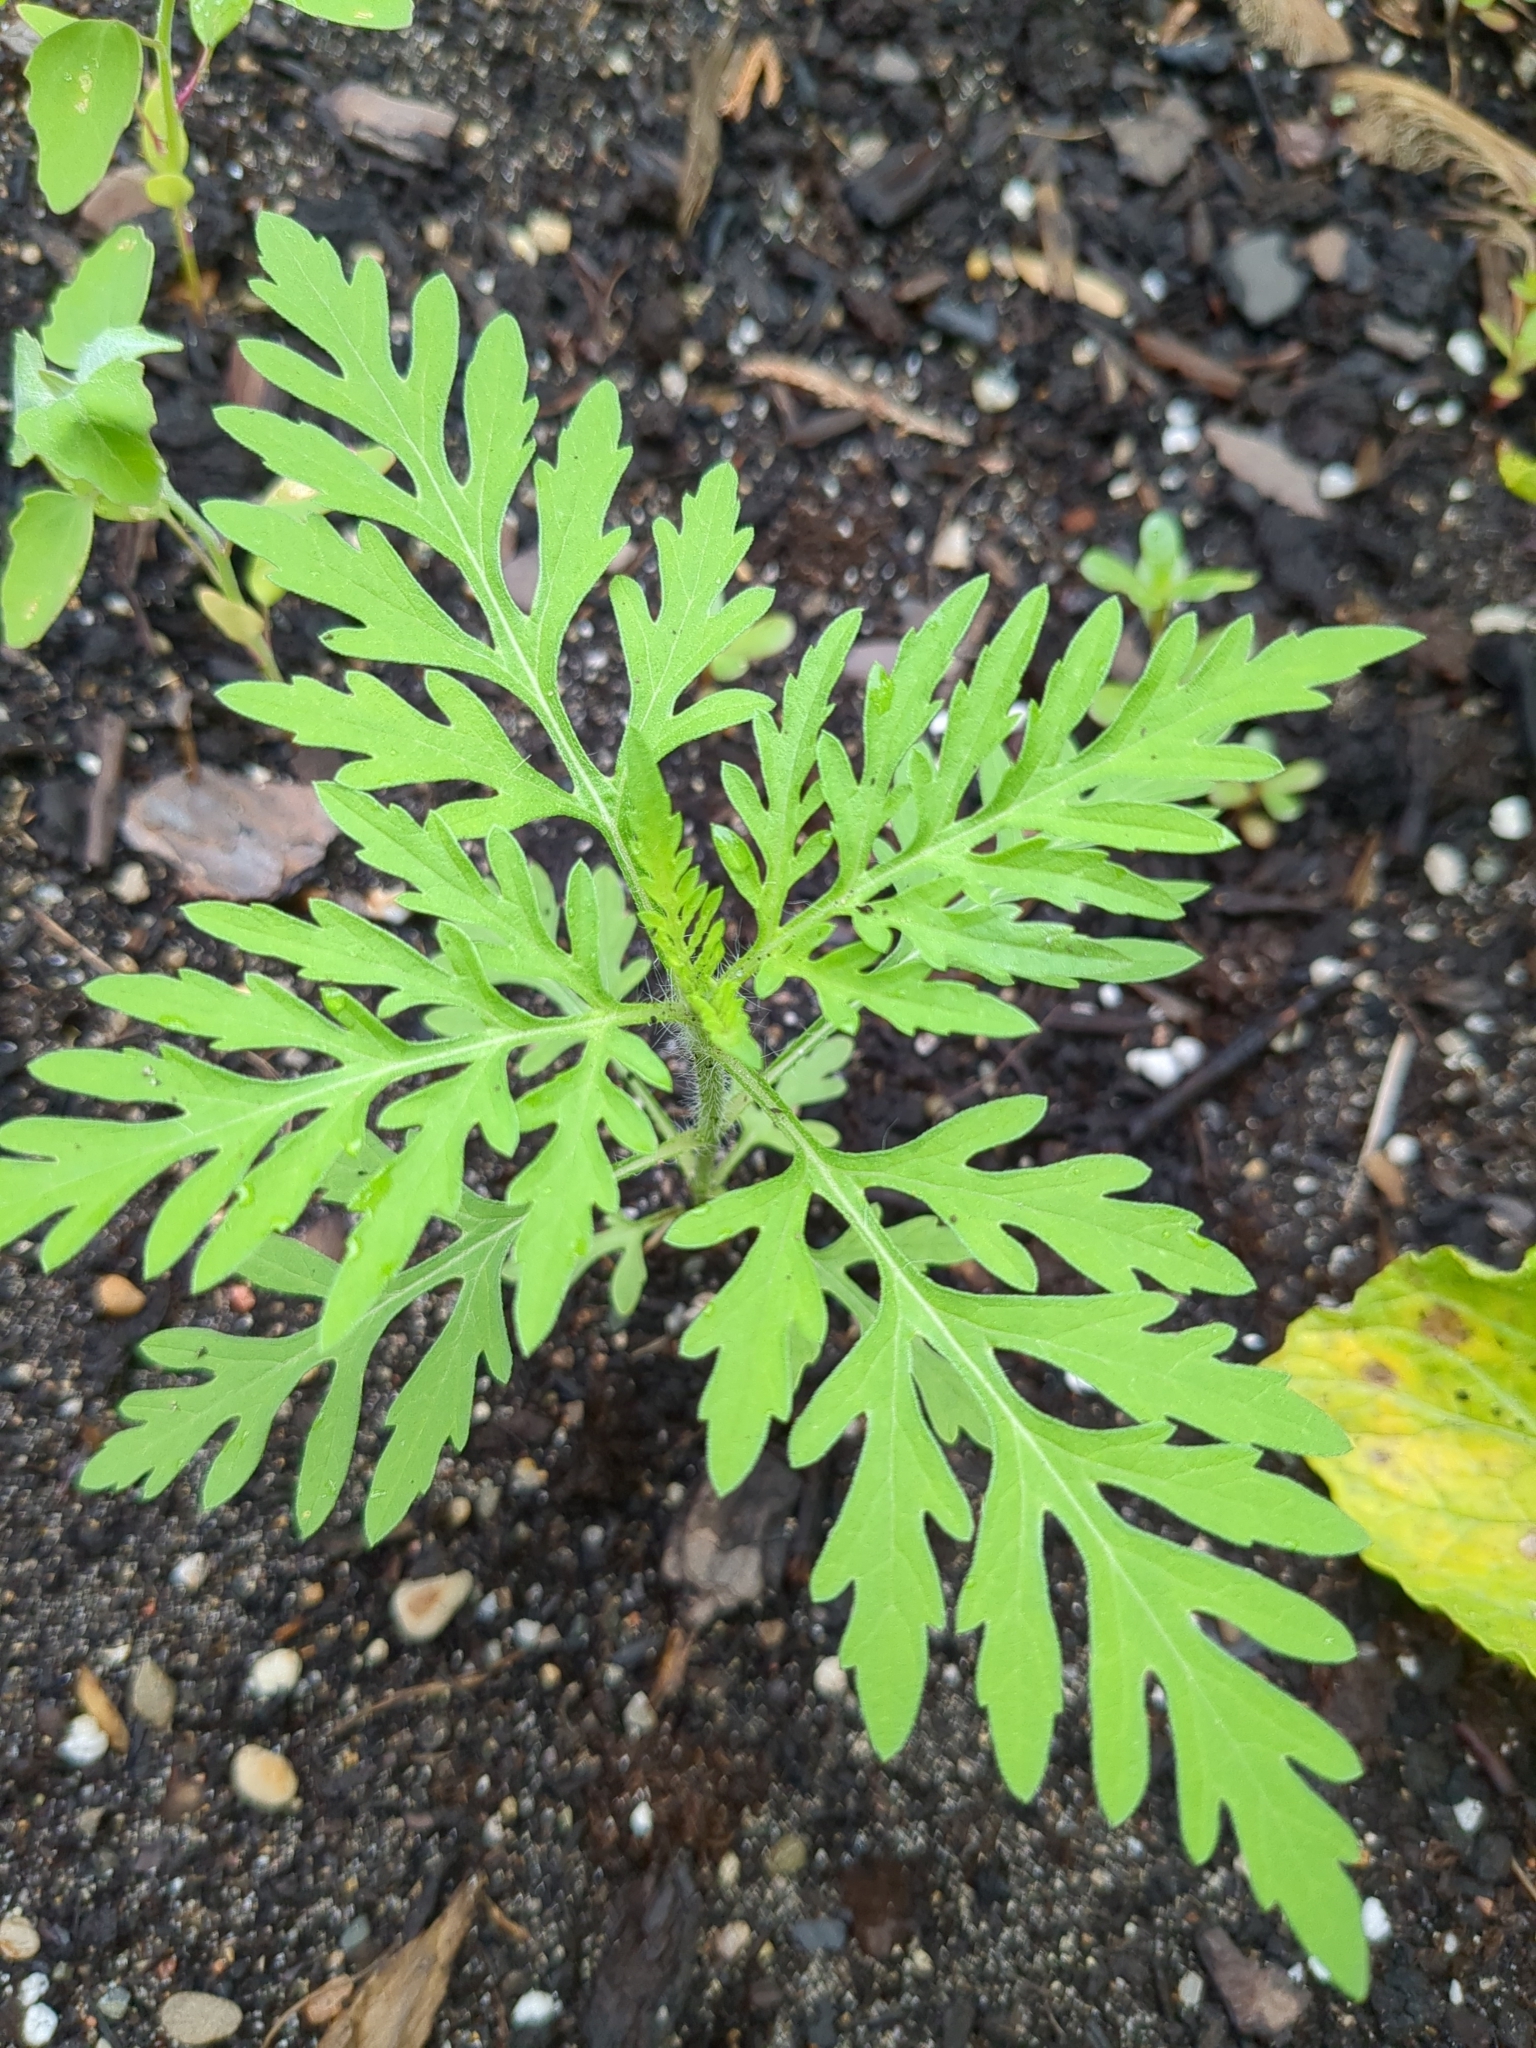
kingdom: Plantae
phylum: Tracheophyta
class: Magnoliopsida
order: Asterales
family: Asteraceae
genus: Ambrosia
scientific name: Ambrosia artemisiifolia
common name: Annual ragweed
